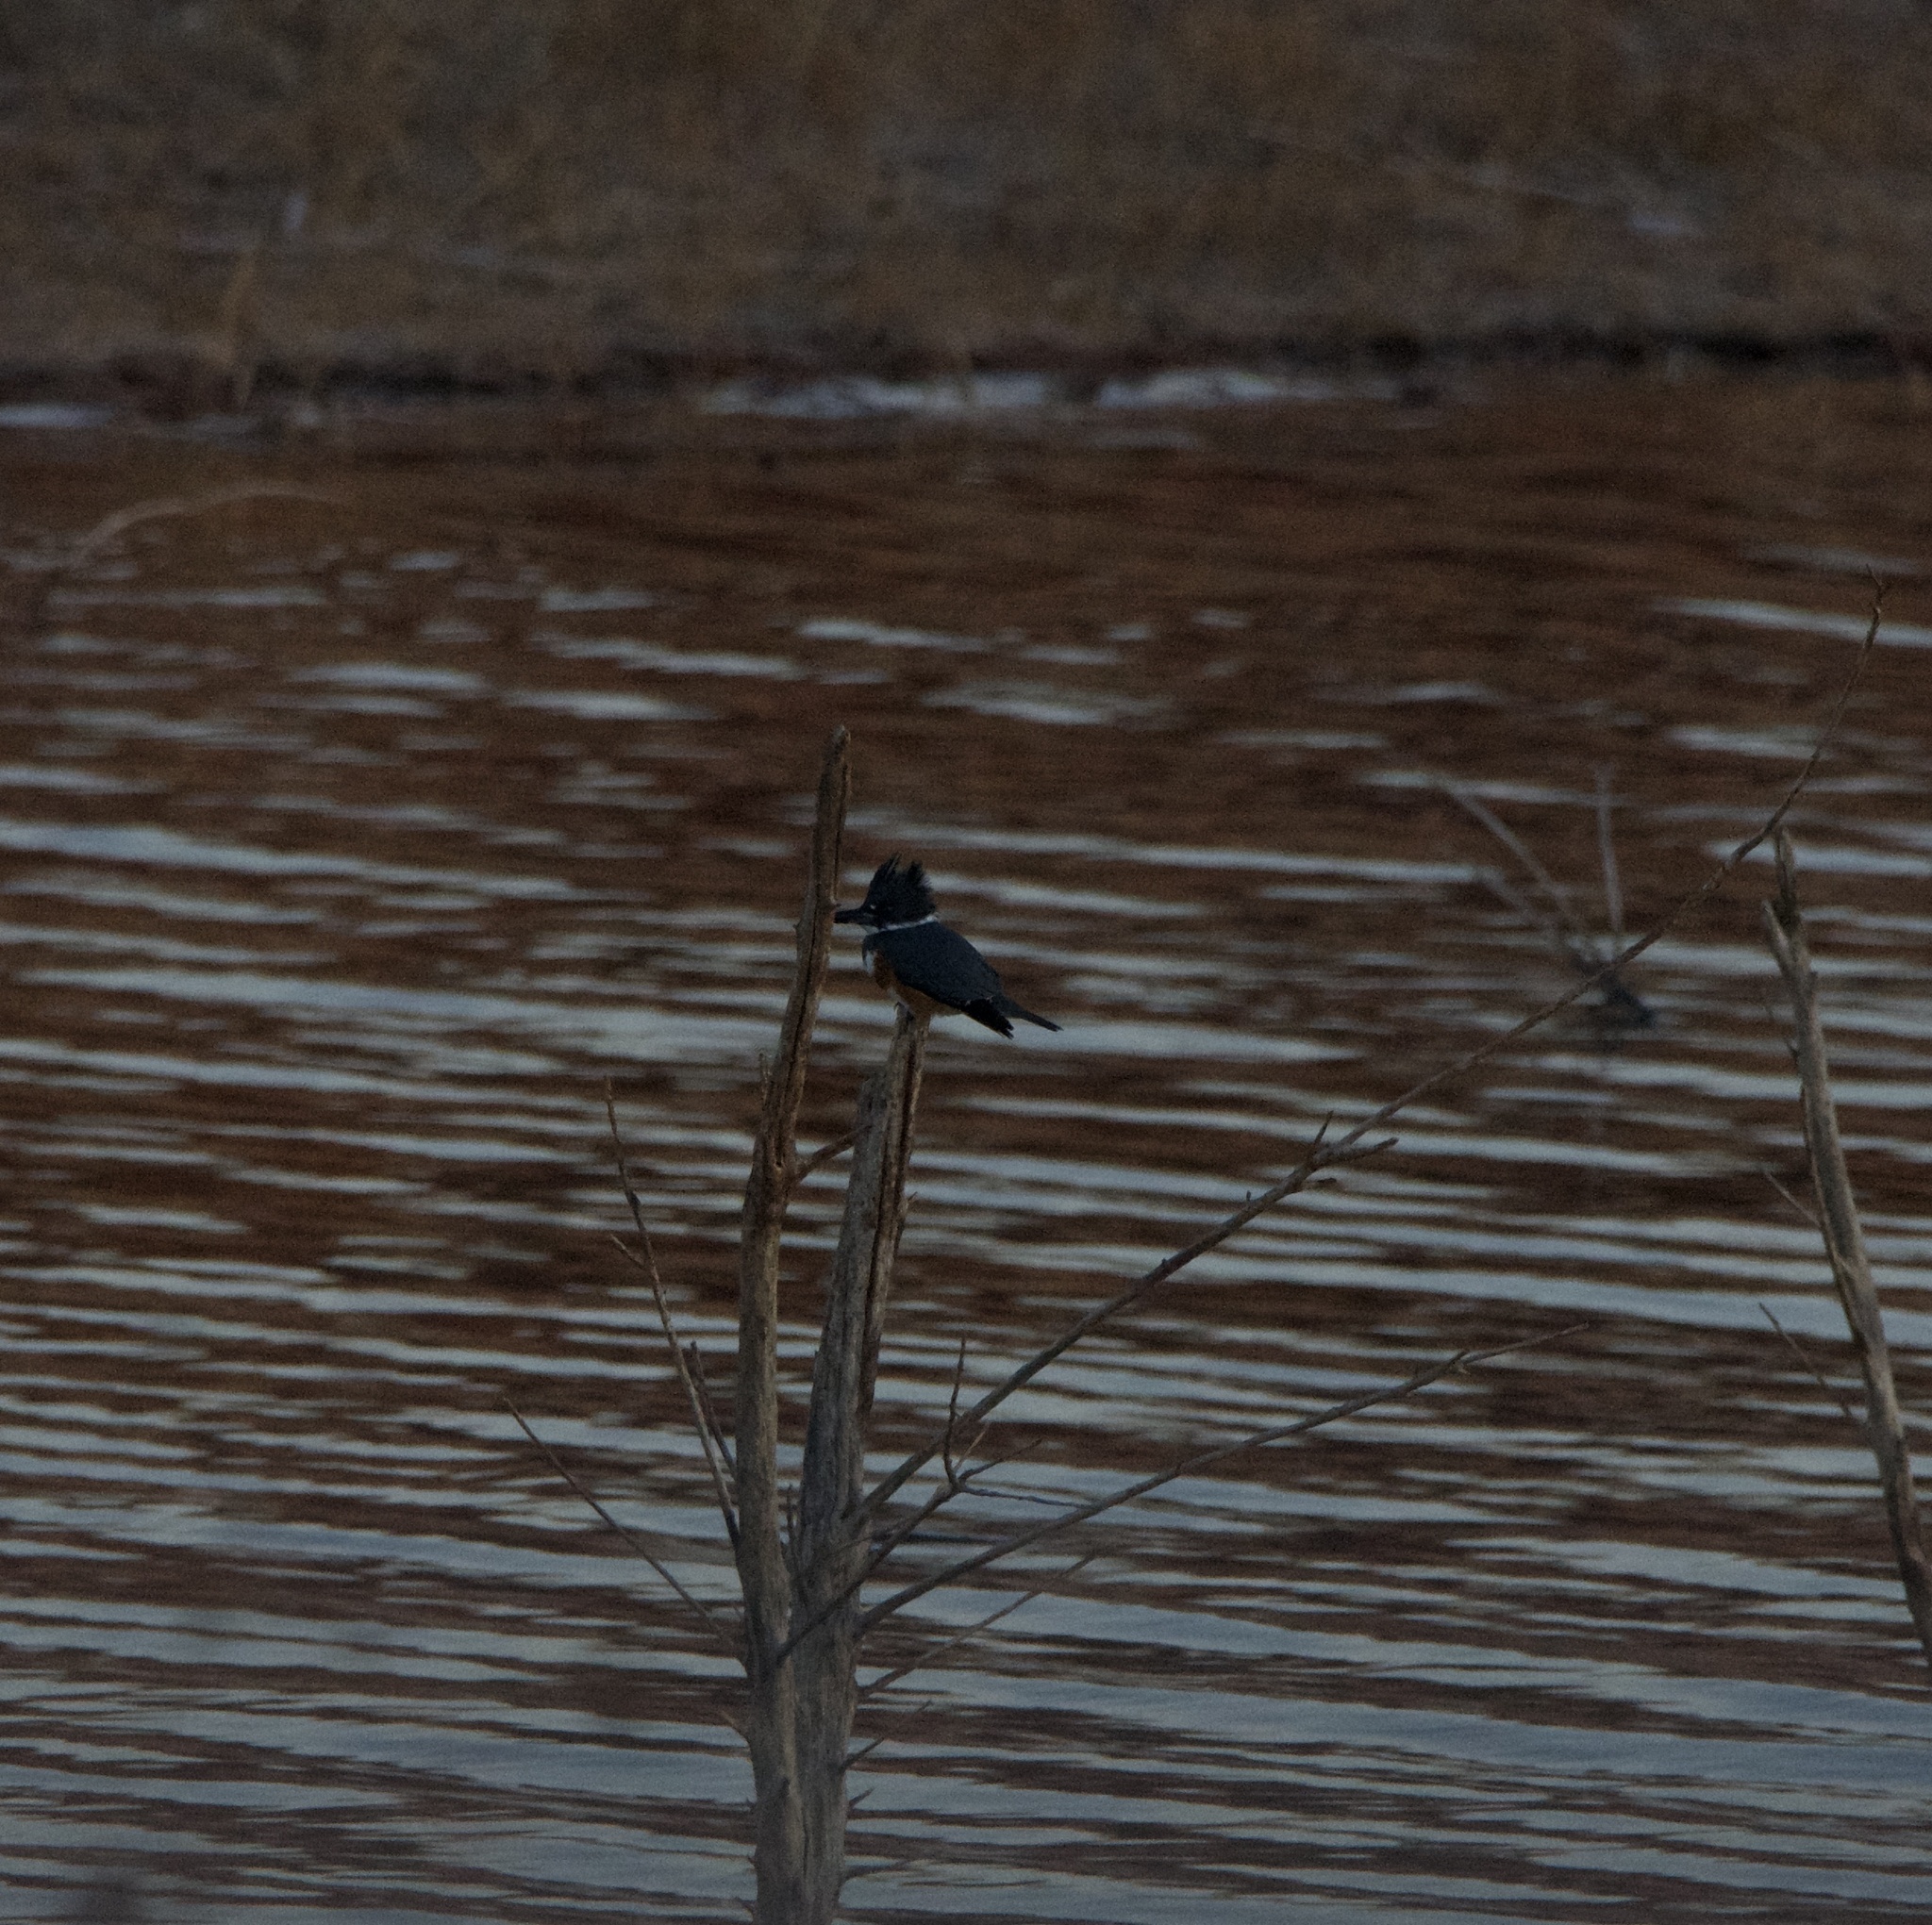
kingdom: Animalia
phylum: Chordata
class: Aves
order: Coraciiformes
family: Alcedinidae
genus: Megaceryle
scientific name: Megaceryle alcyon
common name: Belted kingfisher
